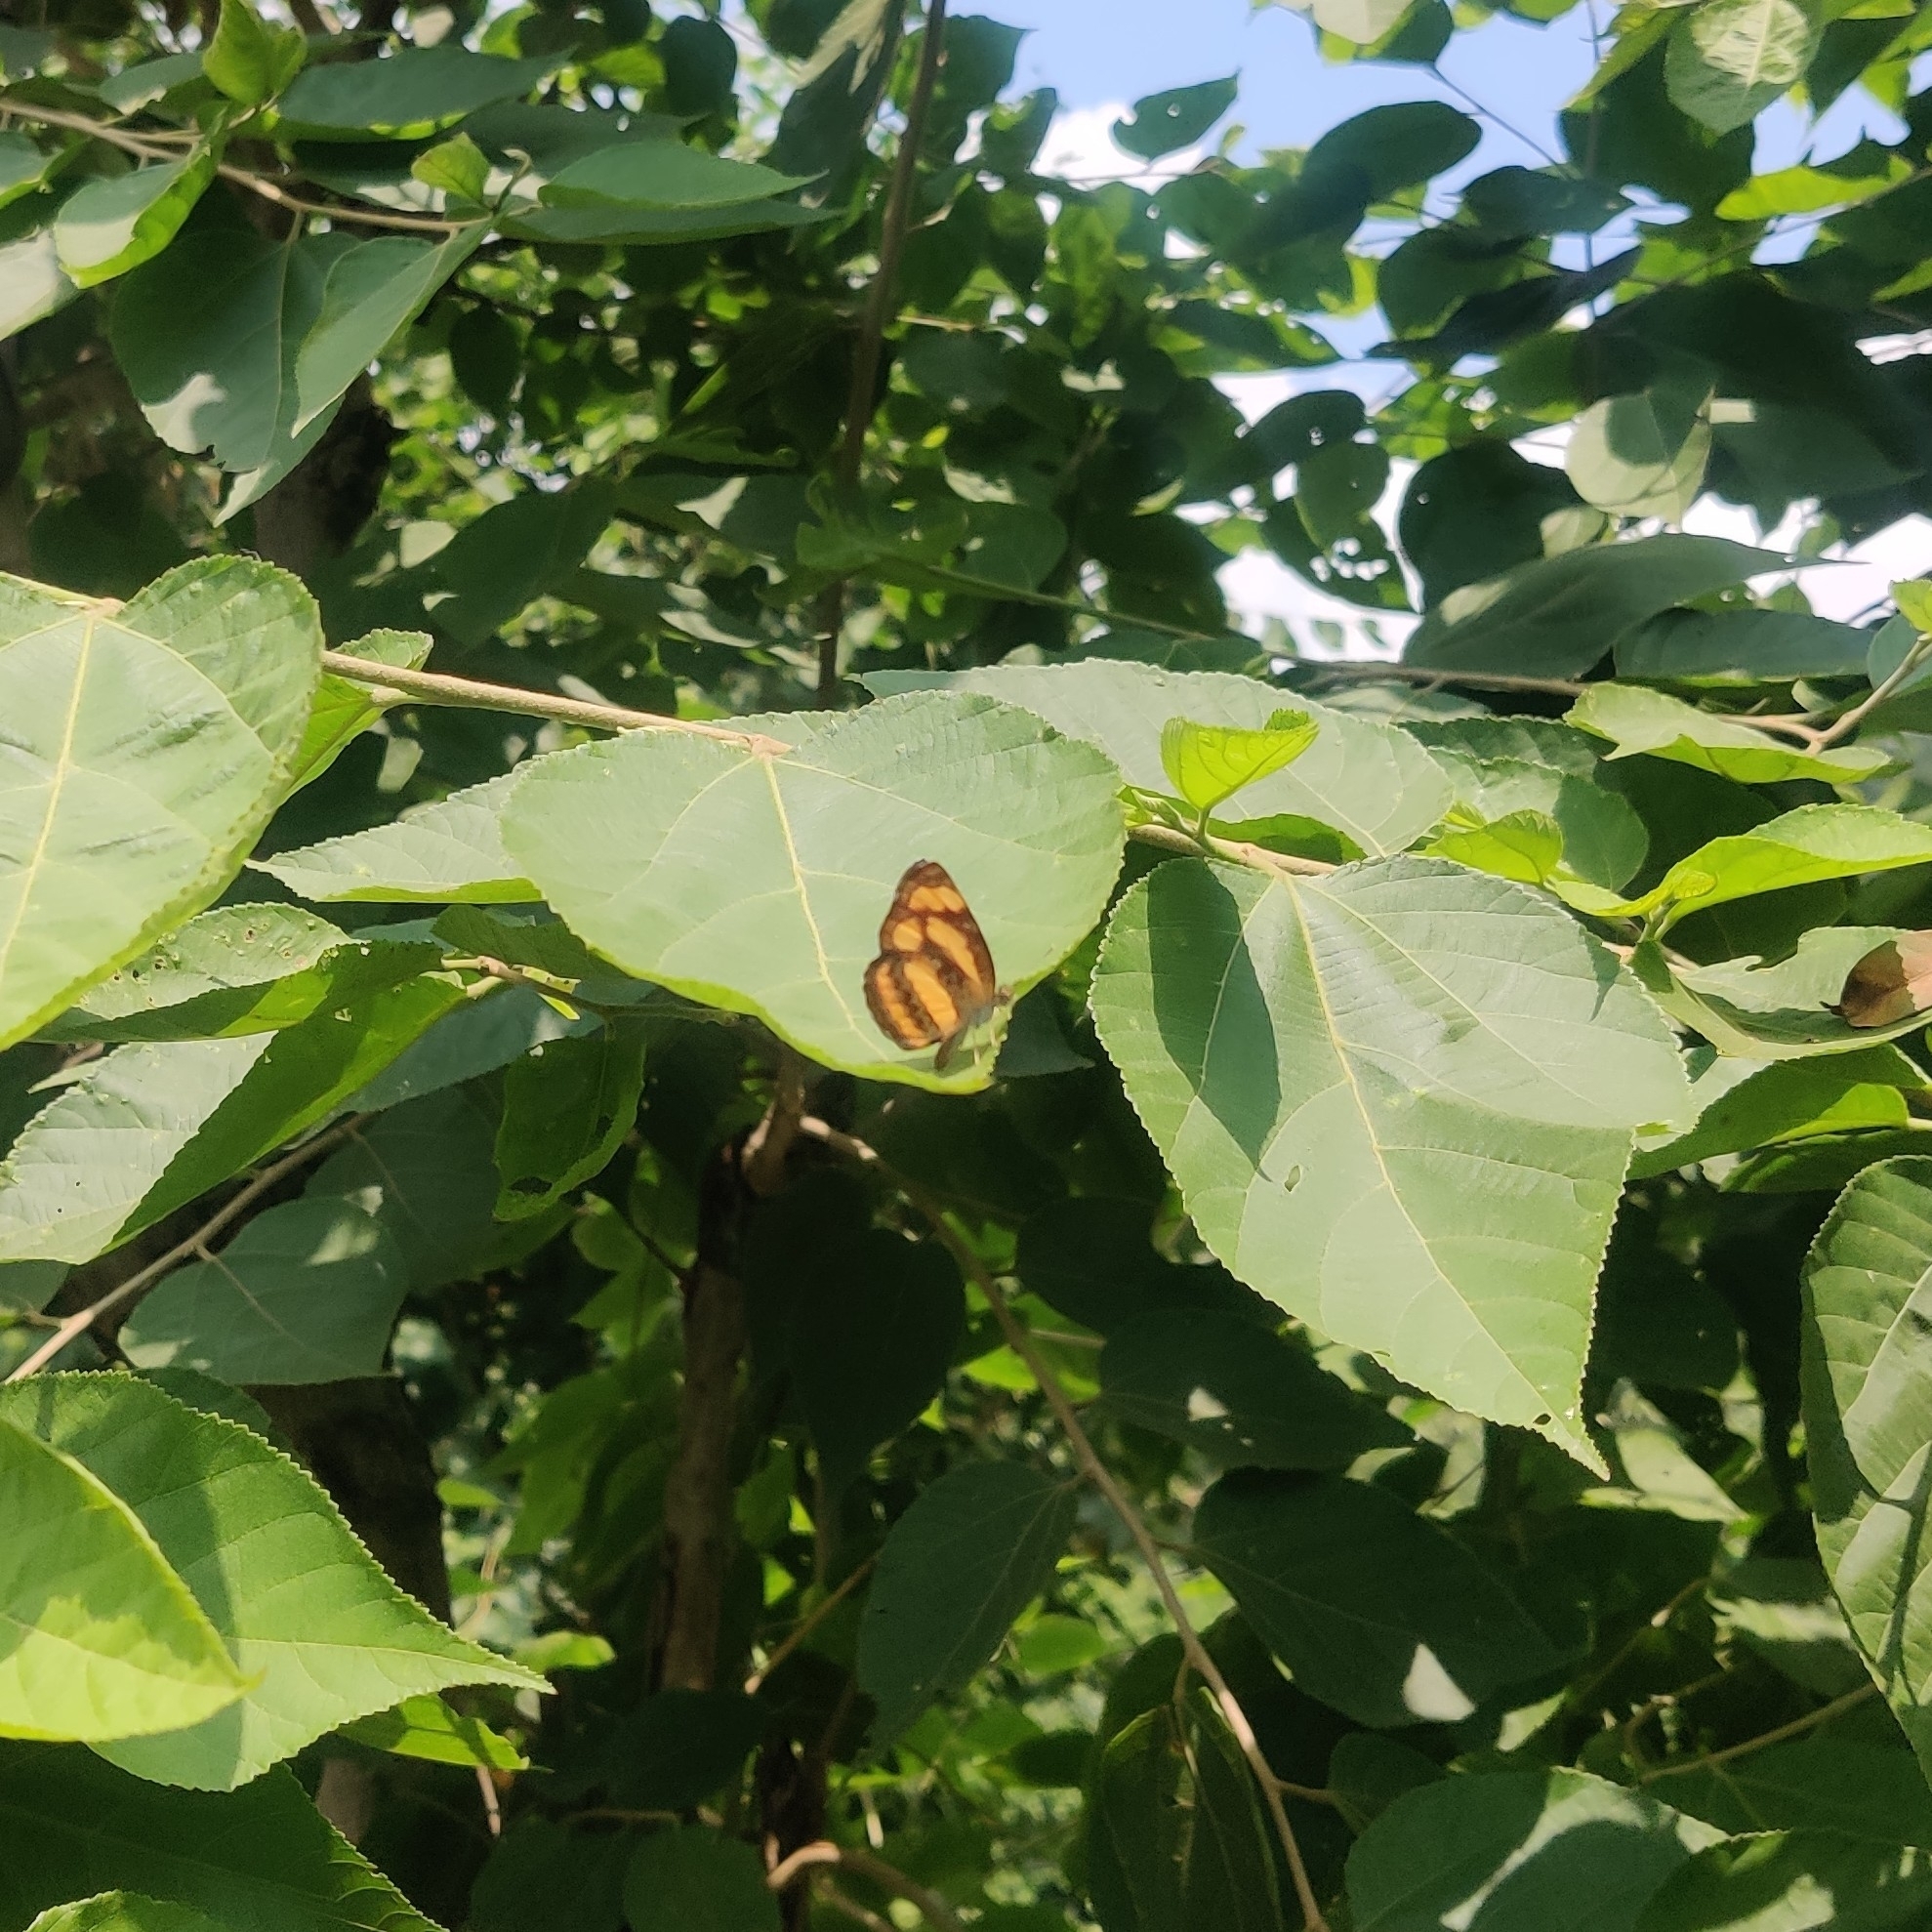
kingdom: Animalia
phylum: Arthropoda
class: Insecta
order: Lepidoptera
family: Nymphalidae
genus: Pantoporia
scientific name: Pantoporia hordonia
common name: Common lascar
